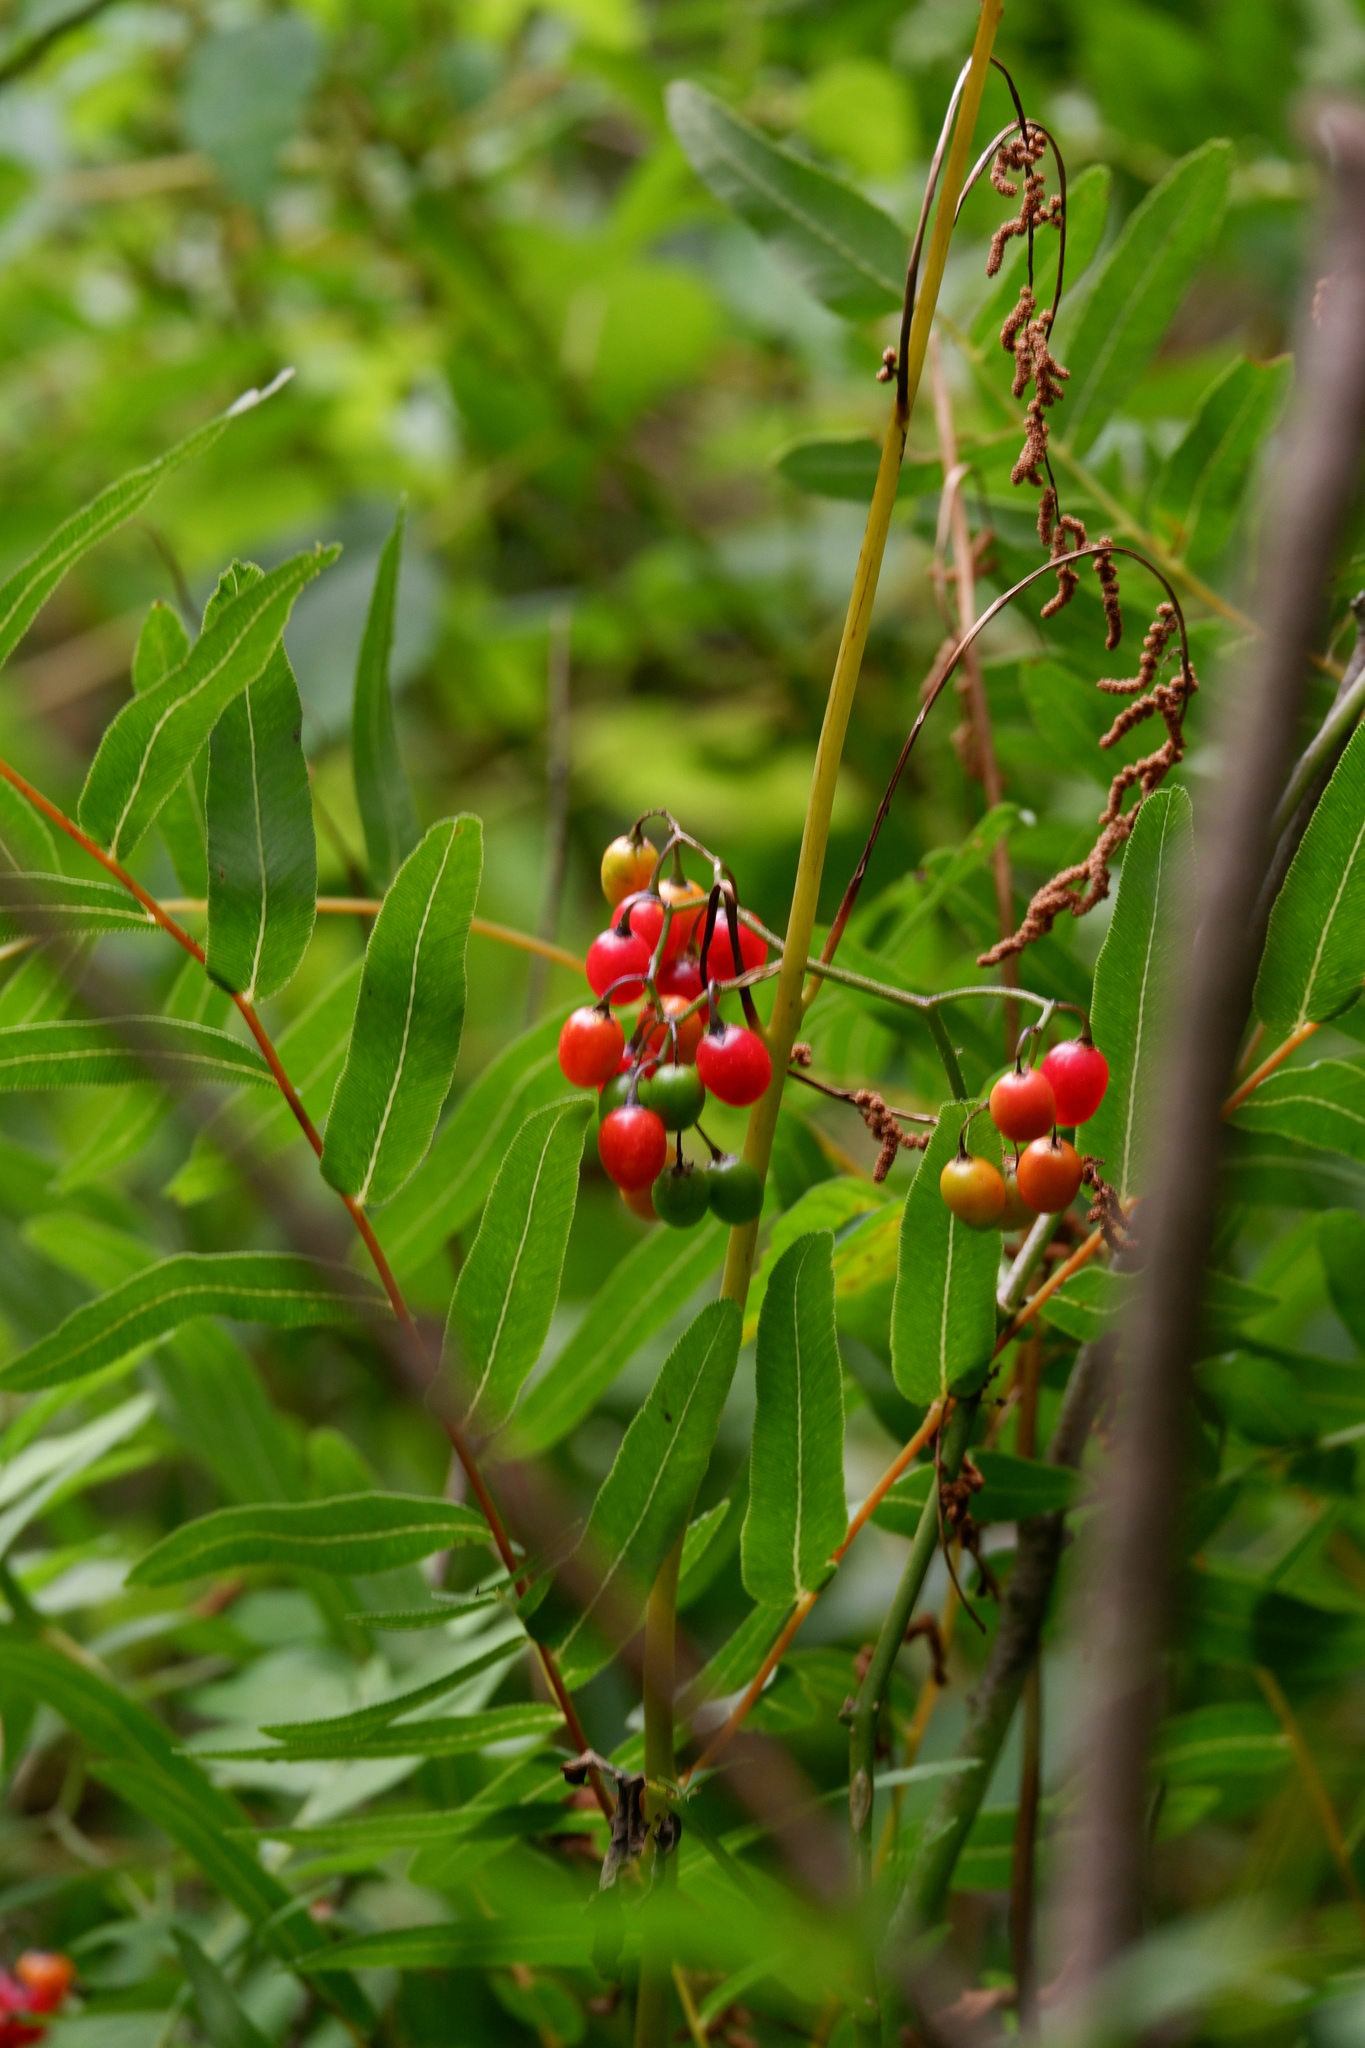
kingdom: Plantae
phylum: Tracheophyta
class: Magnoliopsida
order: Solanales
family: Solanaceae
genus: Solanum
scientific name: Solanum dulcamara
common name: Climbing nightshade
